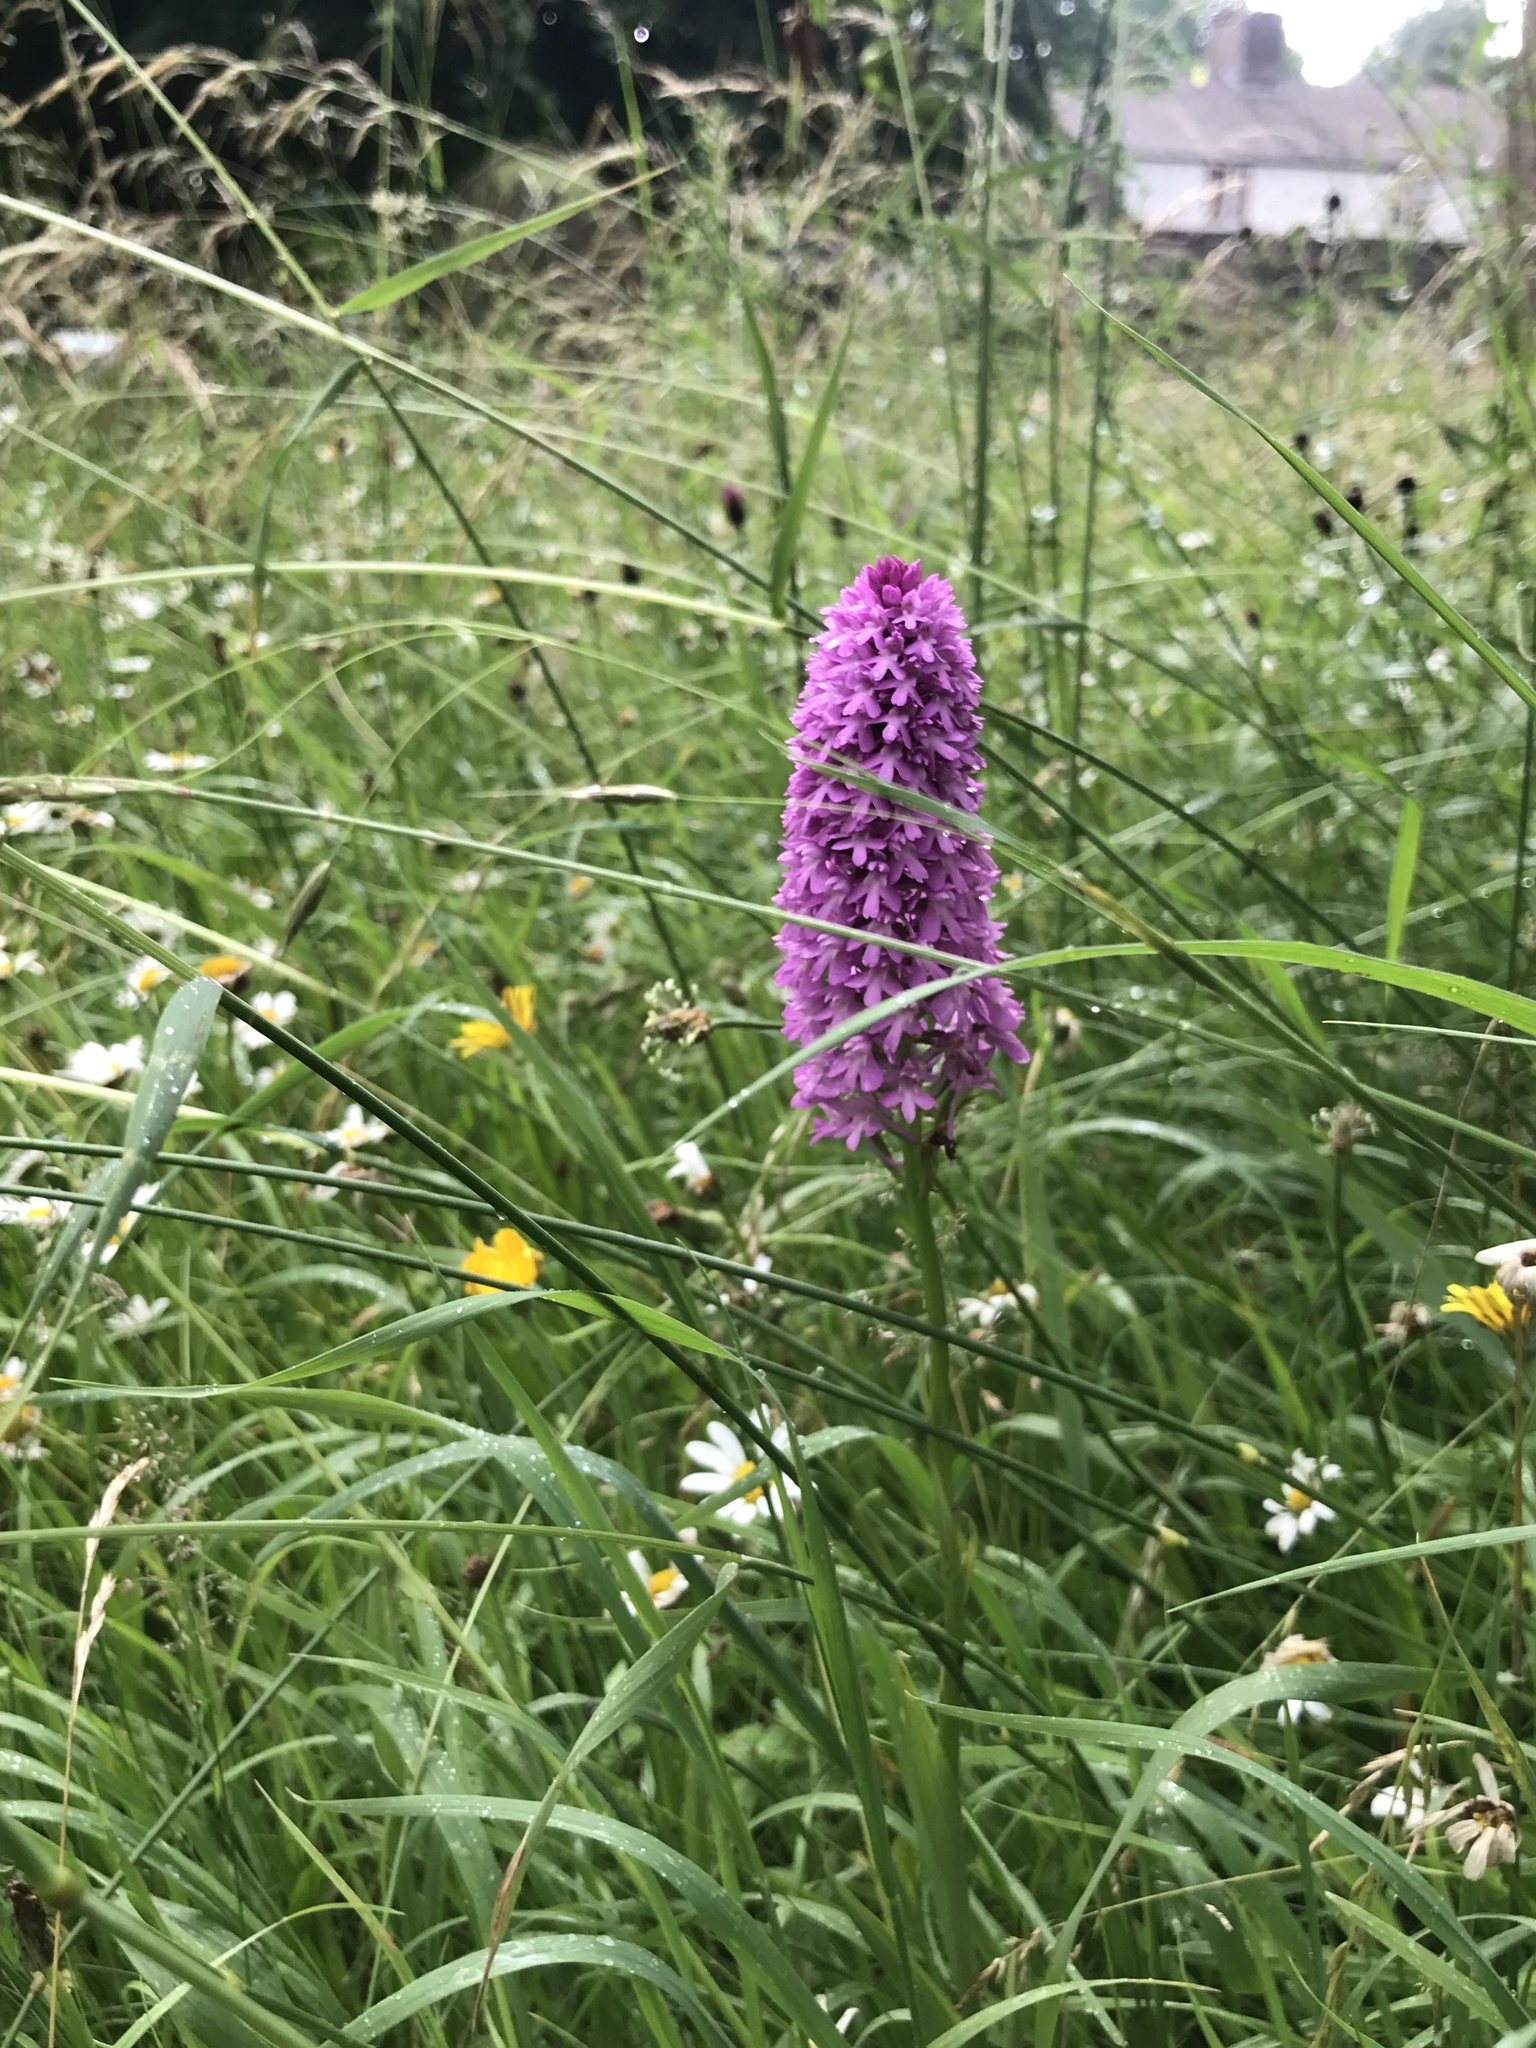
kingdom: Plantae
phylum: Tracheophyta
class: Liliopsida
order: Asparagales
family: Orchidaceae
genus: Anacamptis
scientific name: Anacamptis pyramidalis
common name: Pyramidal orchid
